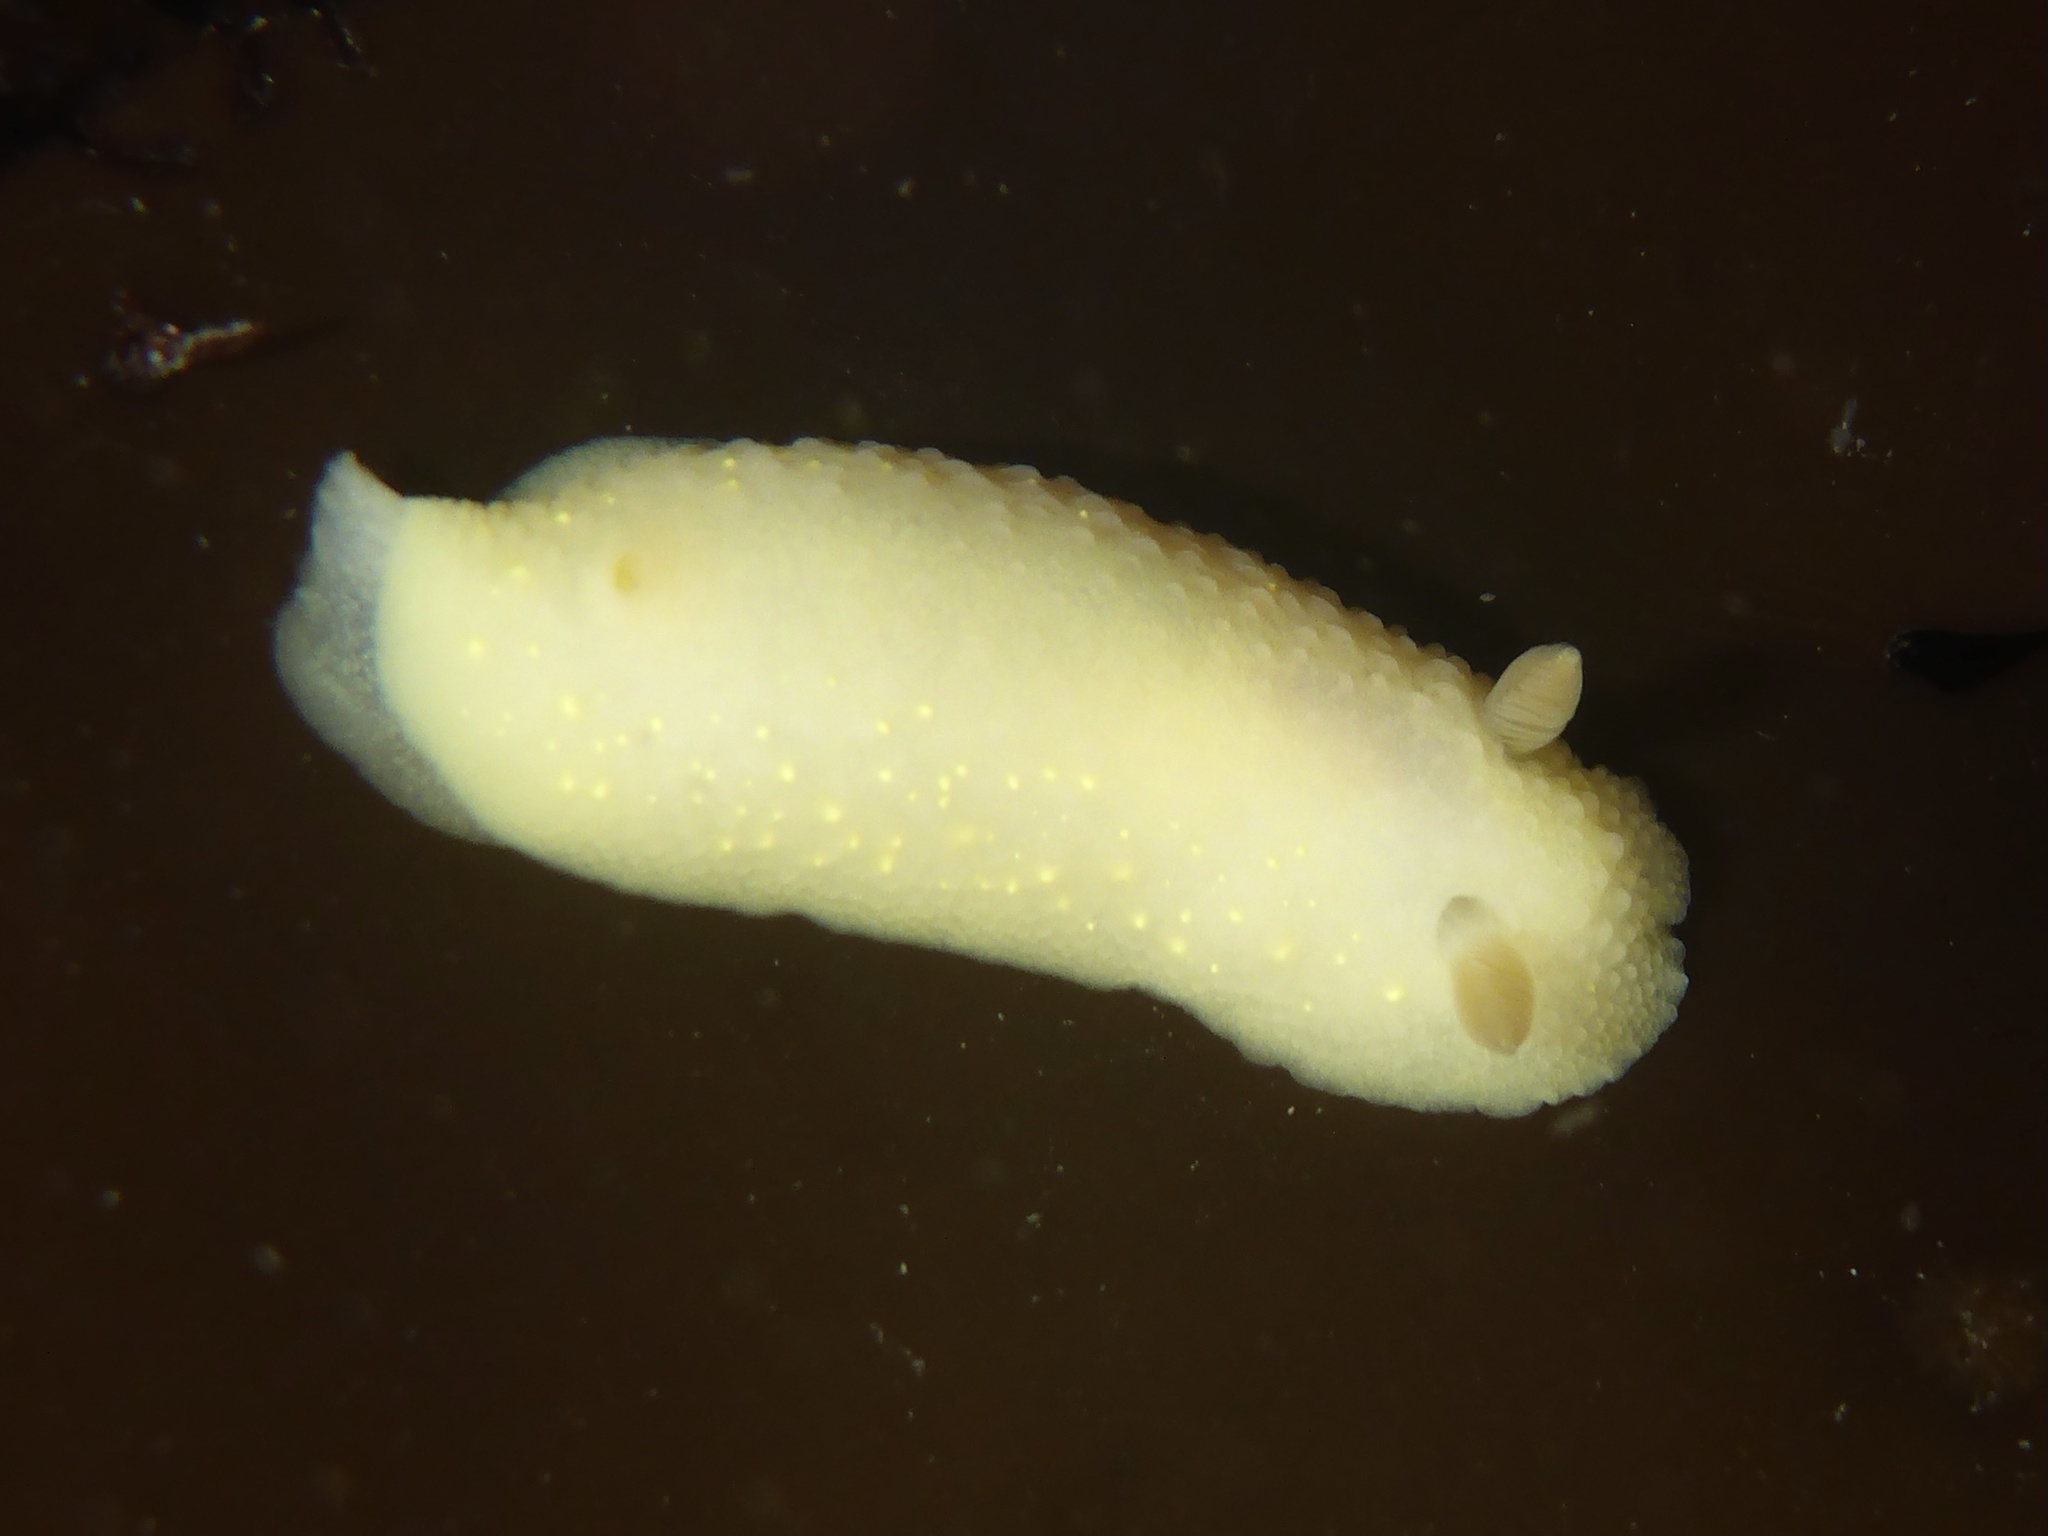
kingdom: Animalia
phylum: Mollusca
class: Gastropoda
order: Nudibranchia
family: Cadlinidae
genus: Cadlina
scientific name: Cadlina modesta
